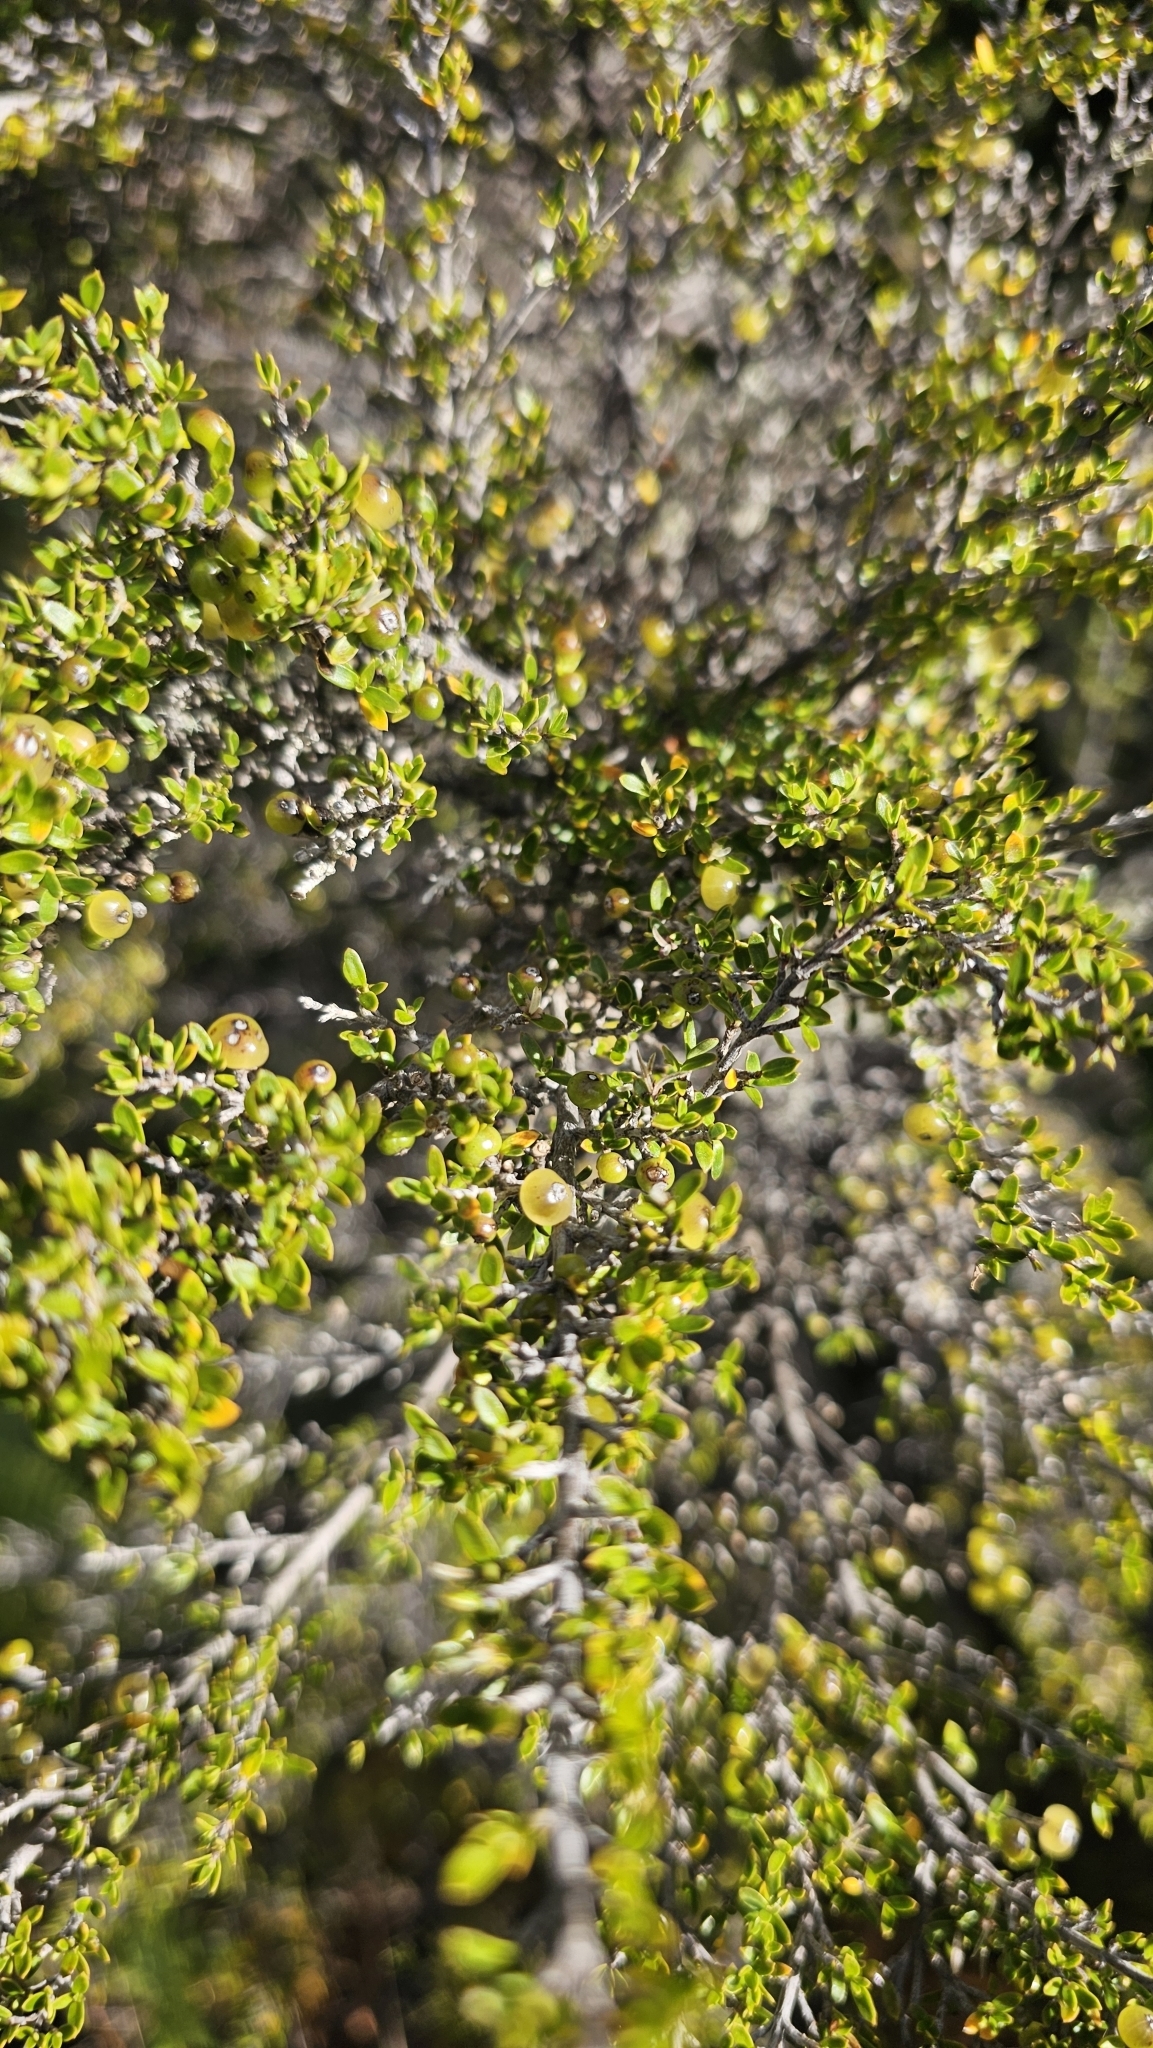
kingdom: Plantae
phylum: Tracheophyta
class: Magnoliopsida
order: Gentianales
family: Rubiaceae
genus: Coprosma
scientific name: Coprosma microcarpa
